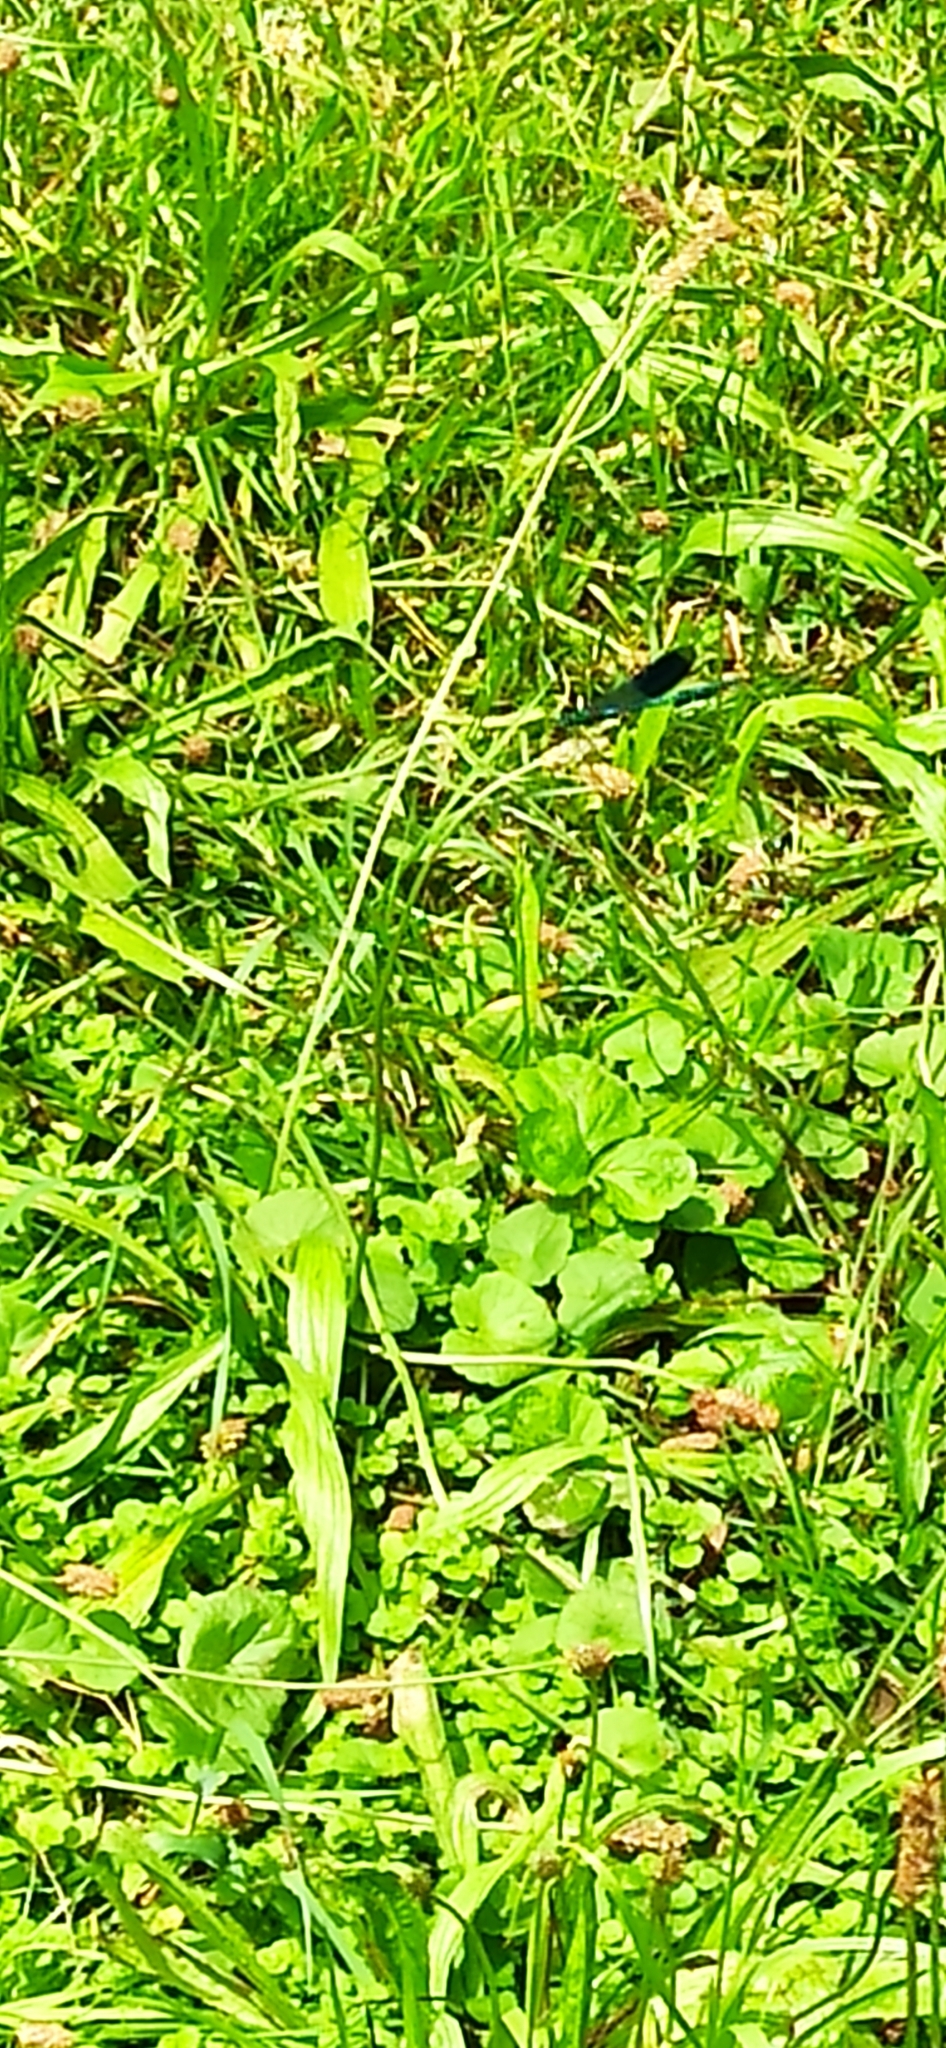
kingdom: Animalia
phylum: Arthropoda
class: Insecta
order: Odonata
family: Calopterygidae
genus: Calopteryx
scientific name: Calopteryx splendens
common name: Banded demoiselle
